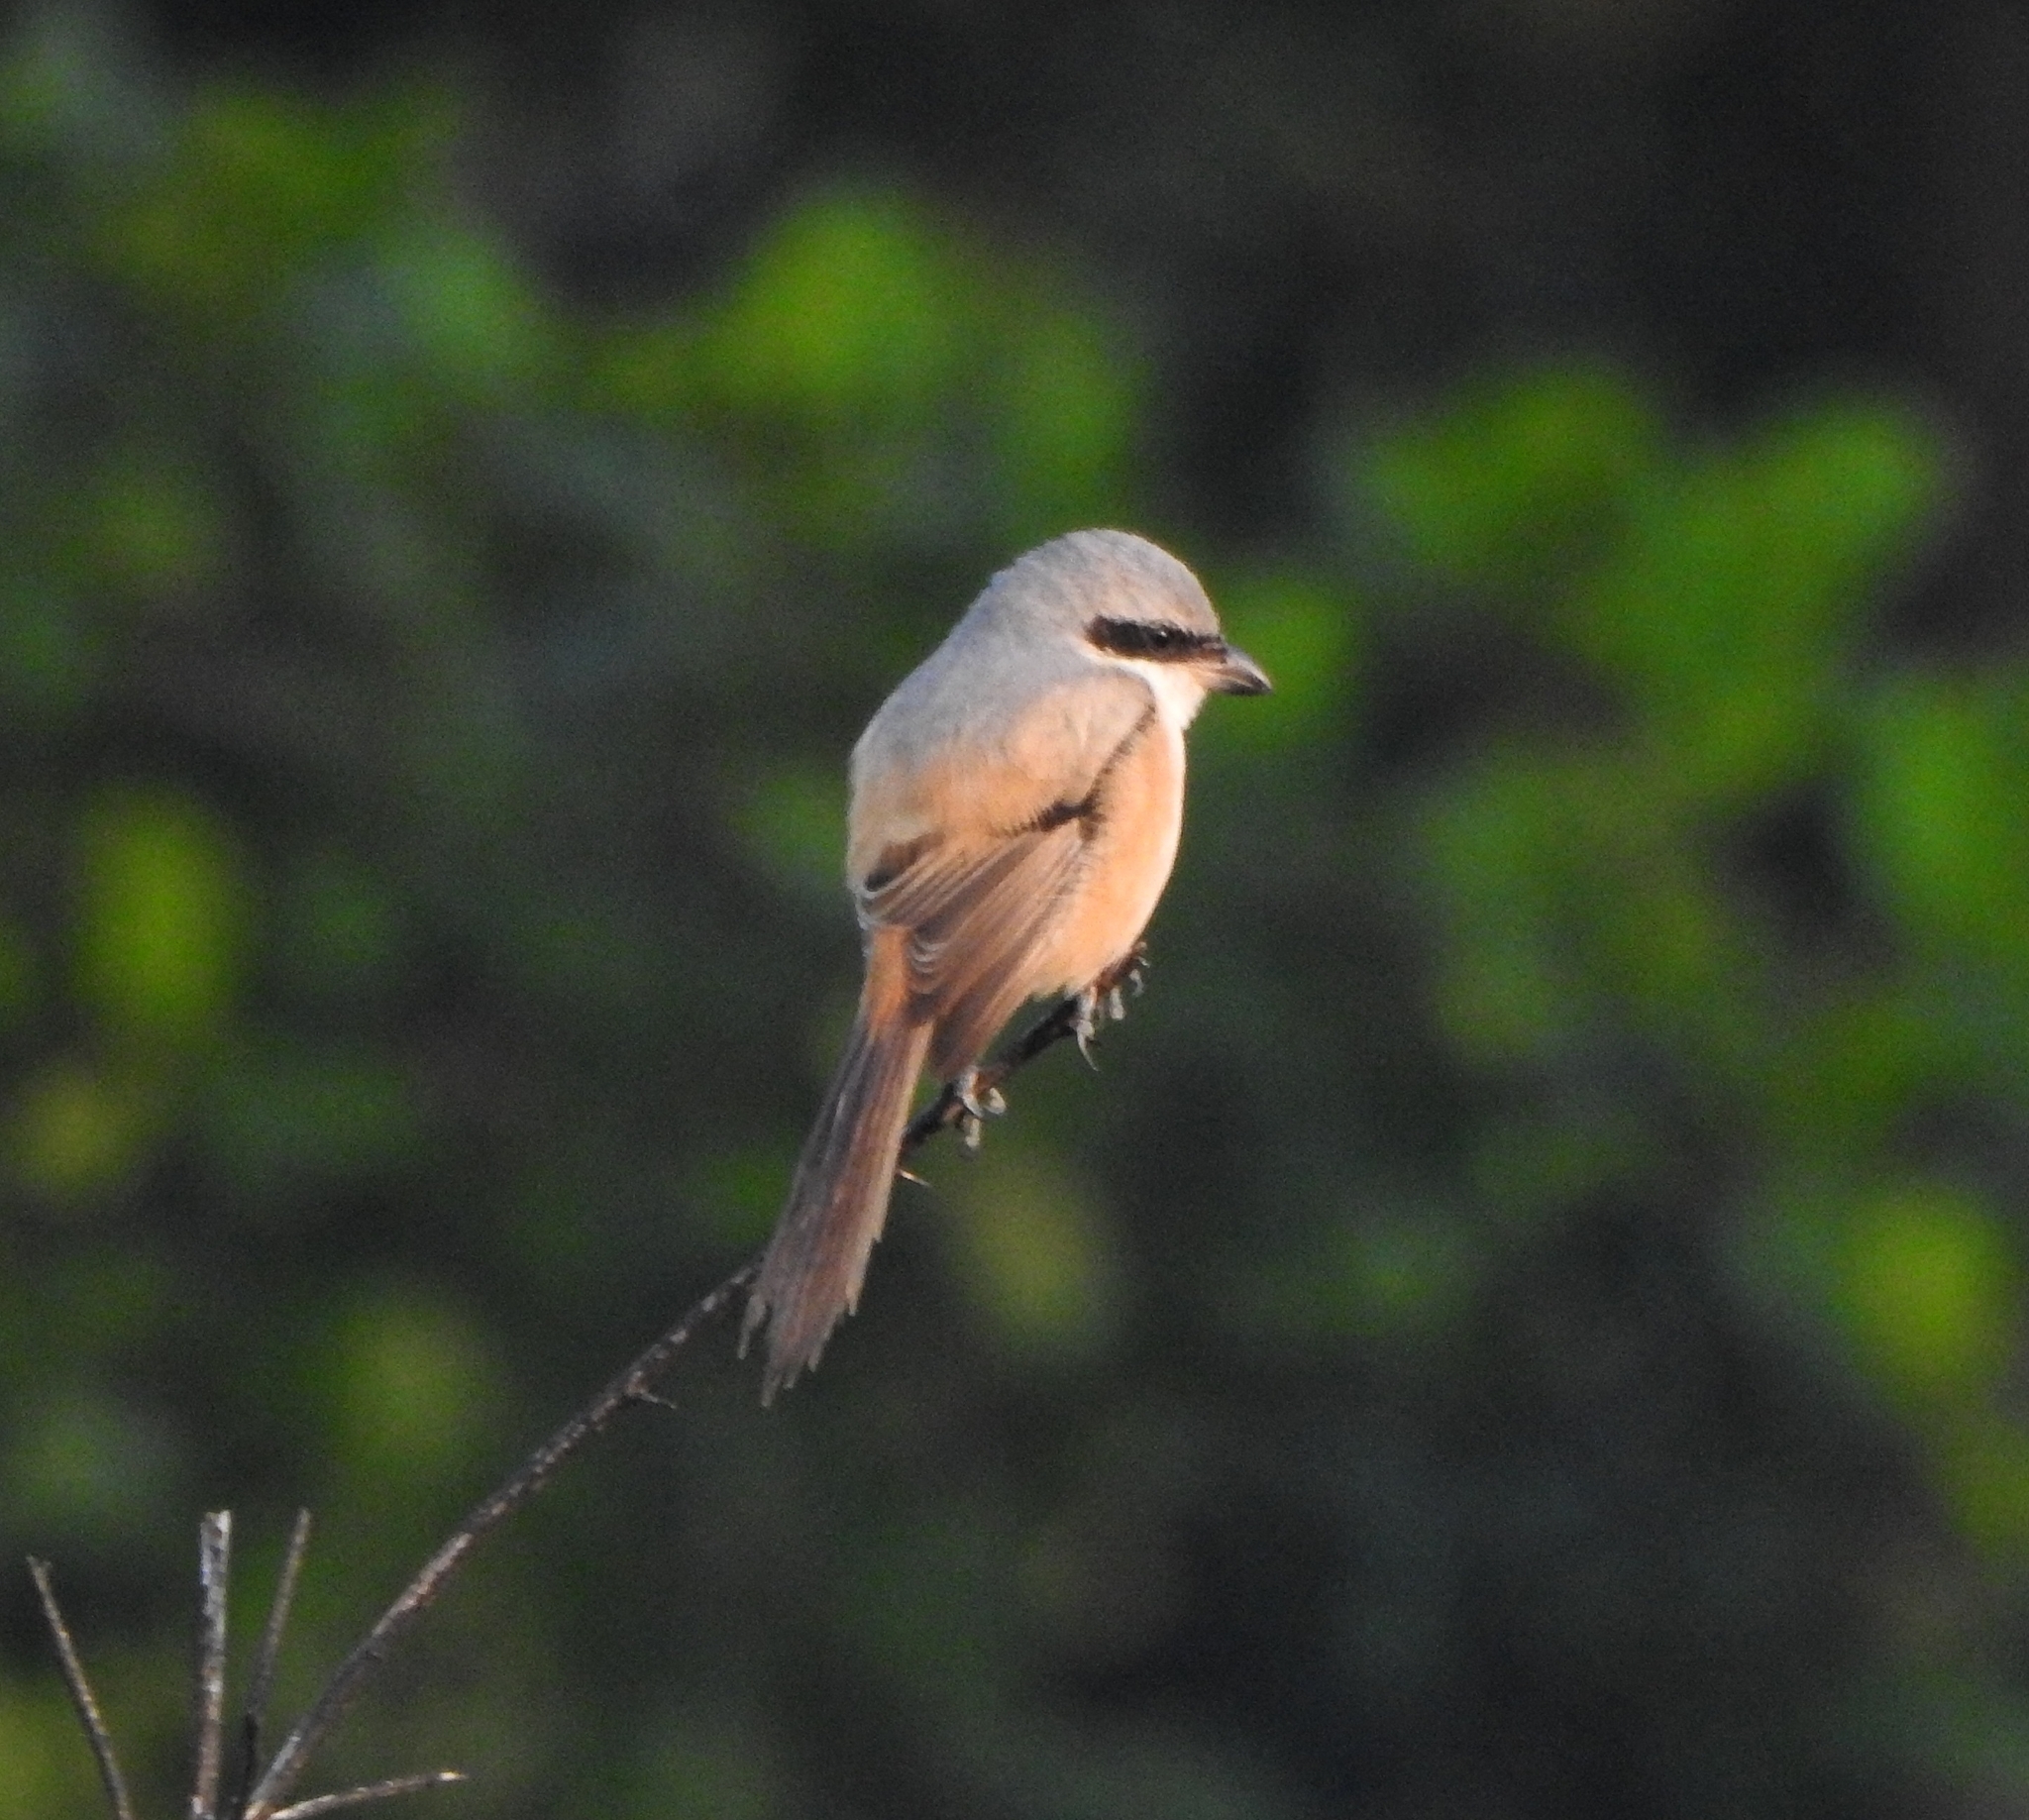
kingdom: Animalia
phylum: Chordata
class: Aves
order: Passeriformes
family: Laniidae
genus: Lanius
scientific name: Lanius schach
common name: Long-tailed shrike
